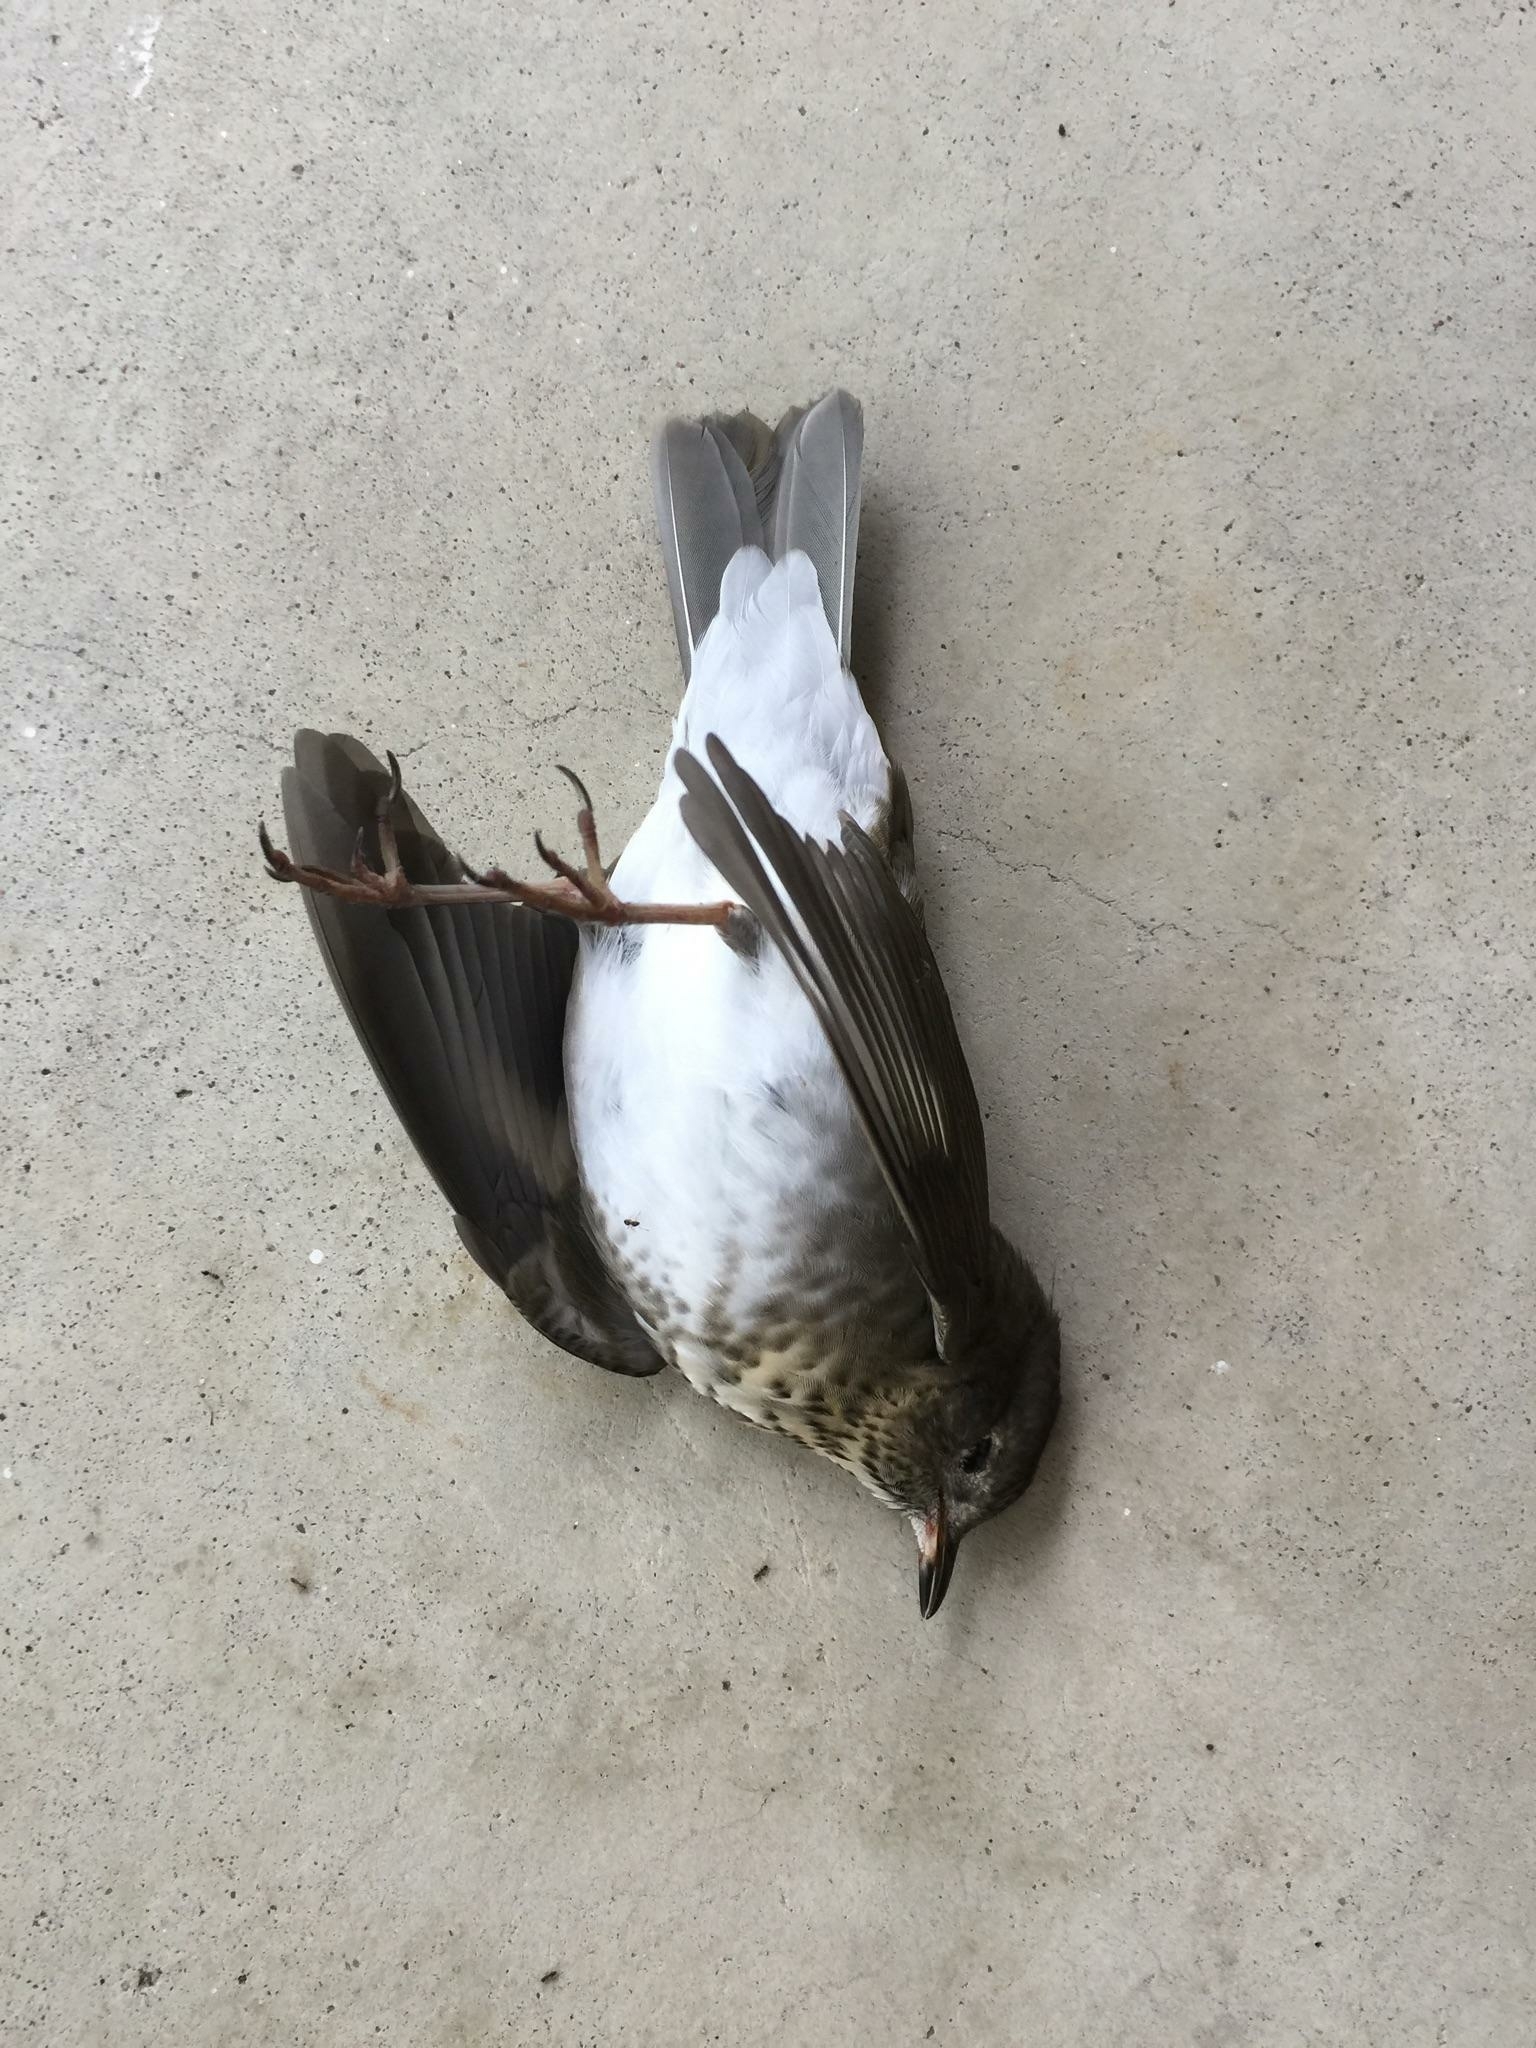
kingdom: Animalia
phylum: Chordata
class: Aves
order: Passeriformes
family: Turdidae
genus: Catharus
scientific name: Catharus guttatus
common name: Hermit thrush
